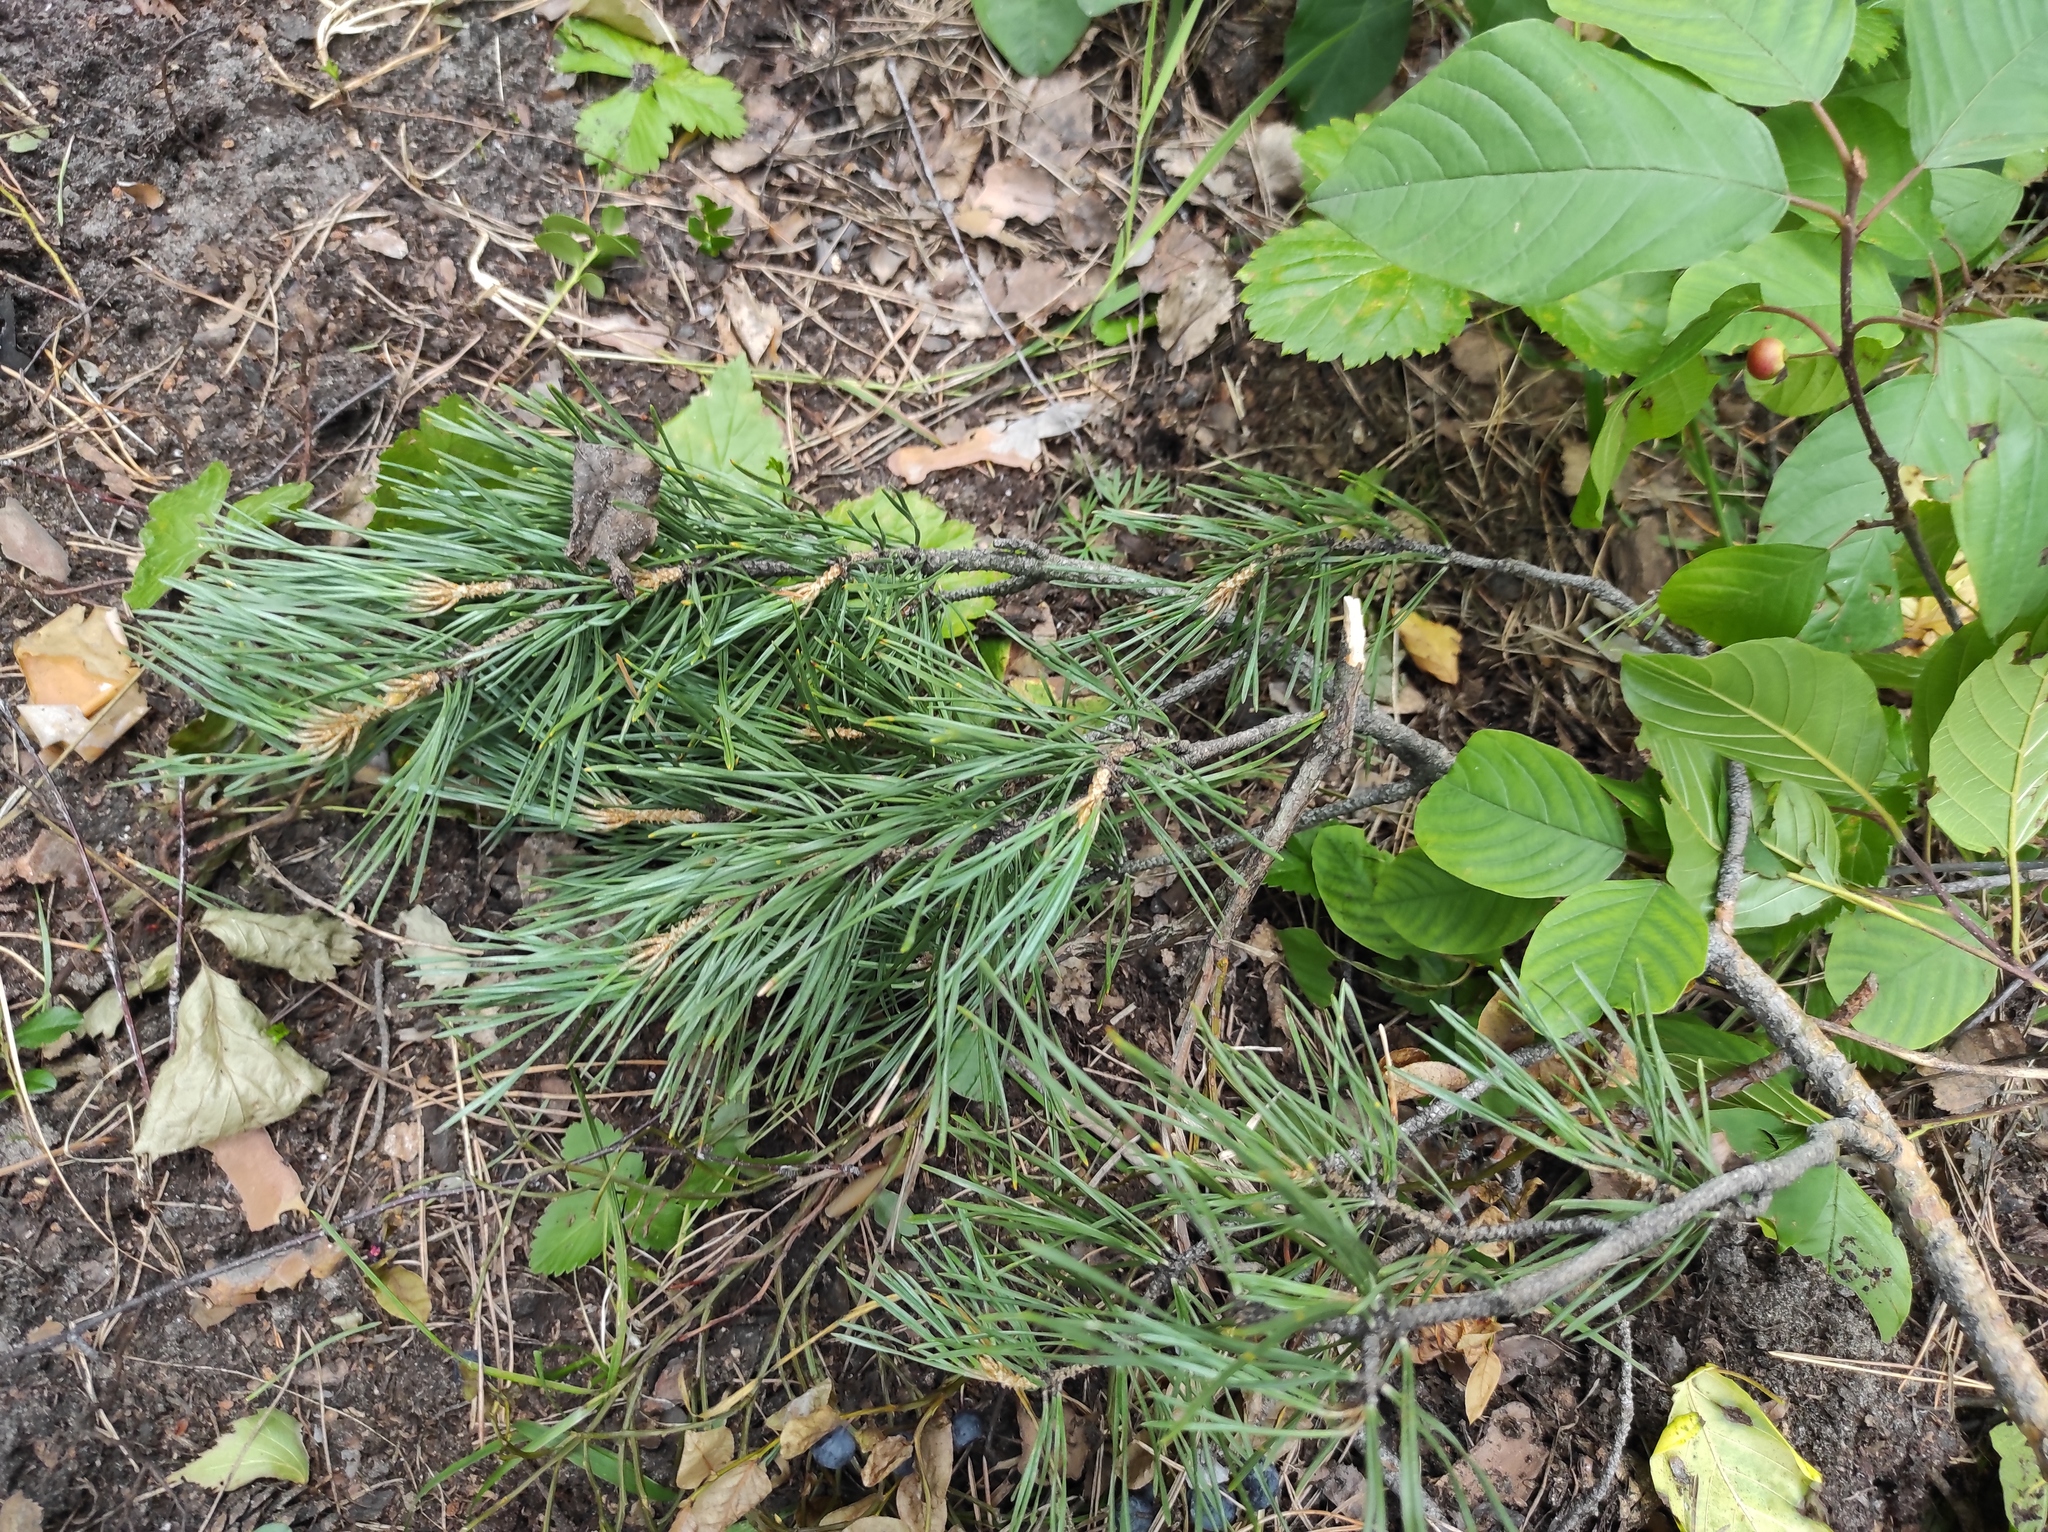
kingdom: Plantae
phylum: Tracheophyta
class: Pinopsida
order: Pinales
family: Pinaceae
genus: Pinus
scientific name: Pinus sylvestris
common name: Scots pine
